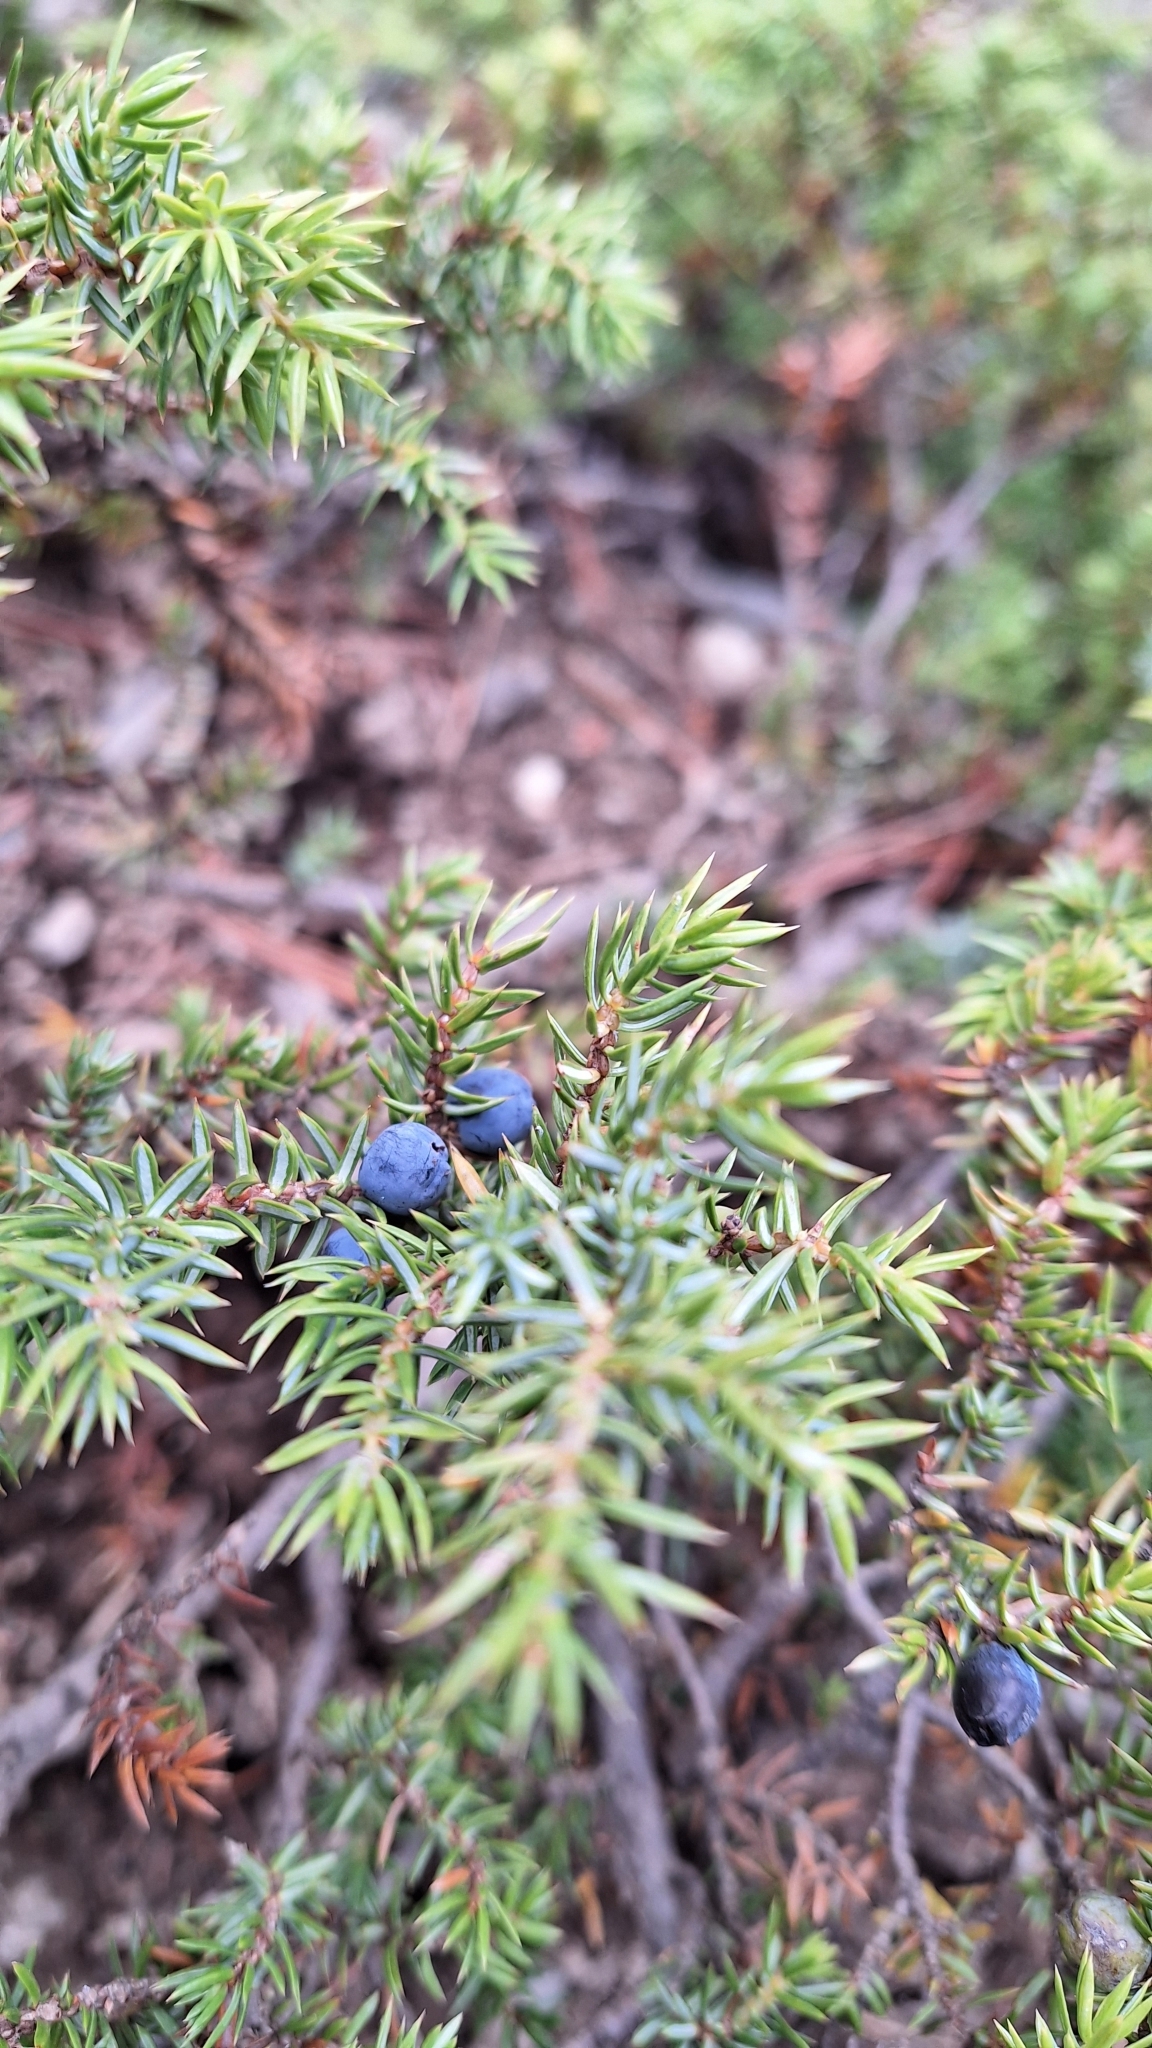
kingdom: Plantae
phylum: Tracheophyta
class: Pinopsida
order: Pinales
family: Cupressaceae
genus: Juniperus
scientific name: Juniperus communis
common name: Common juniper
